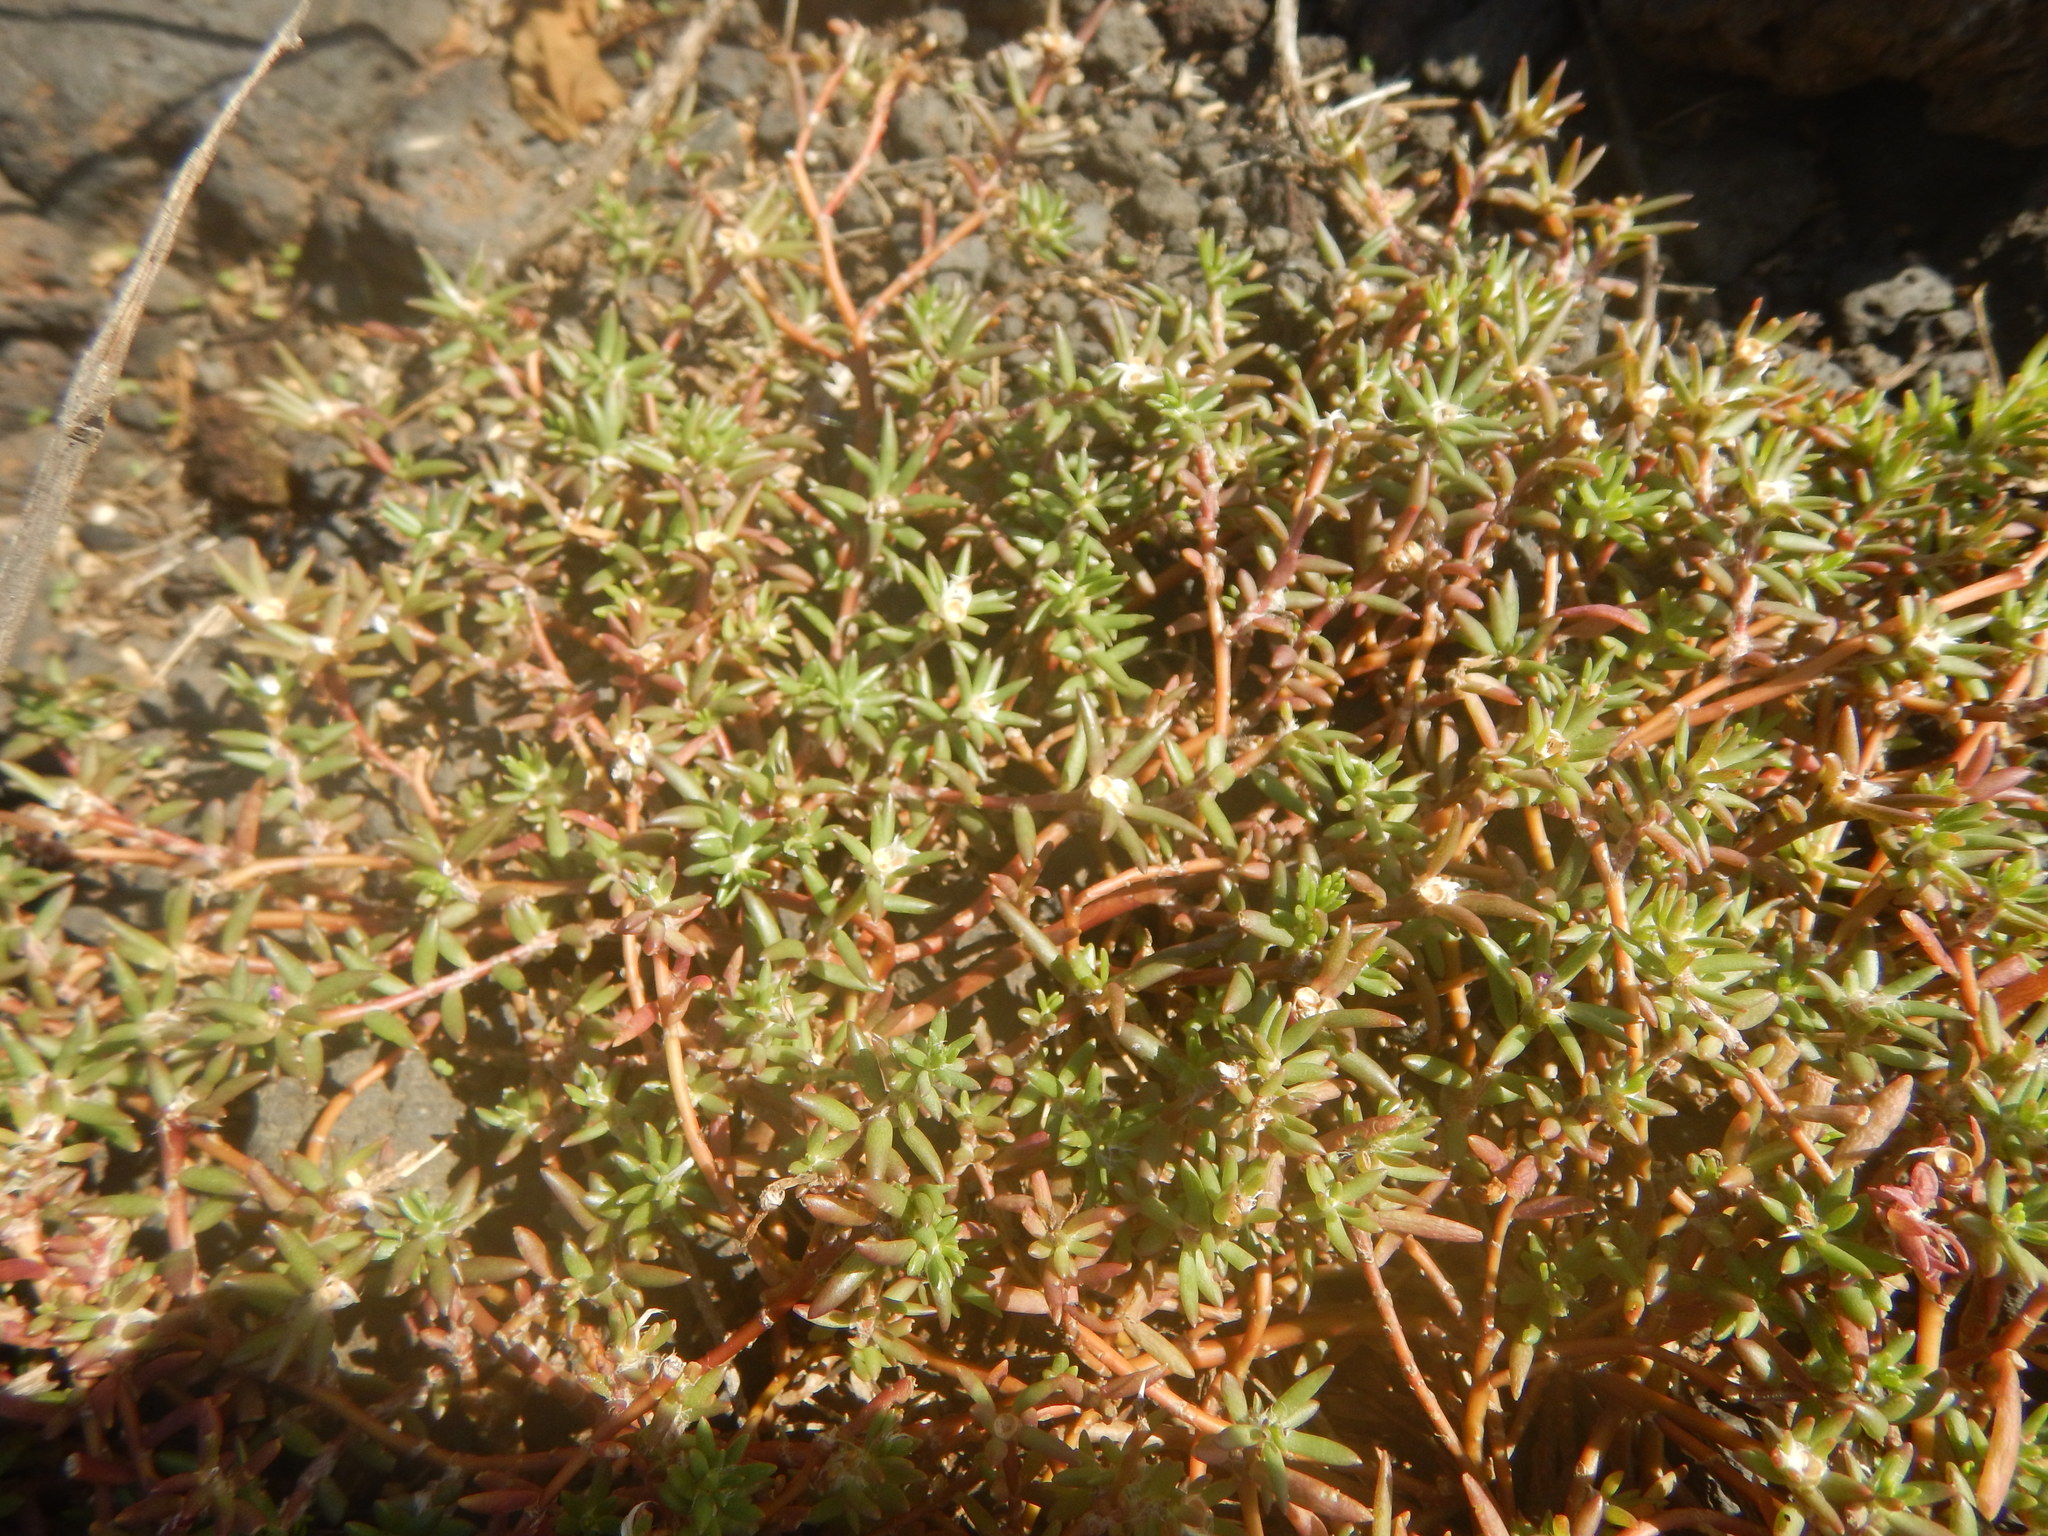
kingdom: Plantae
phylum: Tracheophyta
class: Magnoliopsida
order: Caryophyllales
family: Portulacaceae
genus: Portulaca
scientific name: Portulaca pilosa
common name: Kiss me quick
